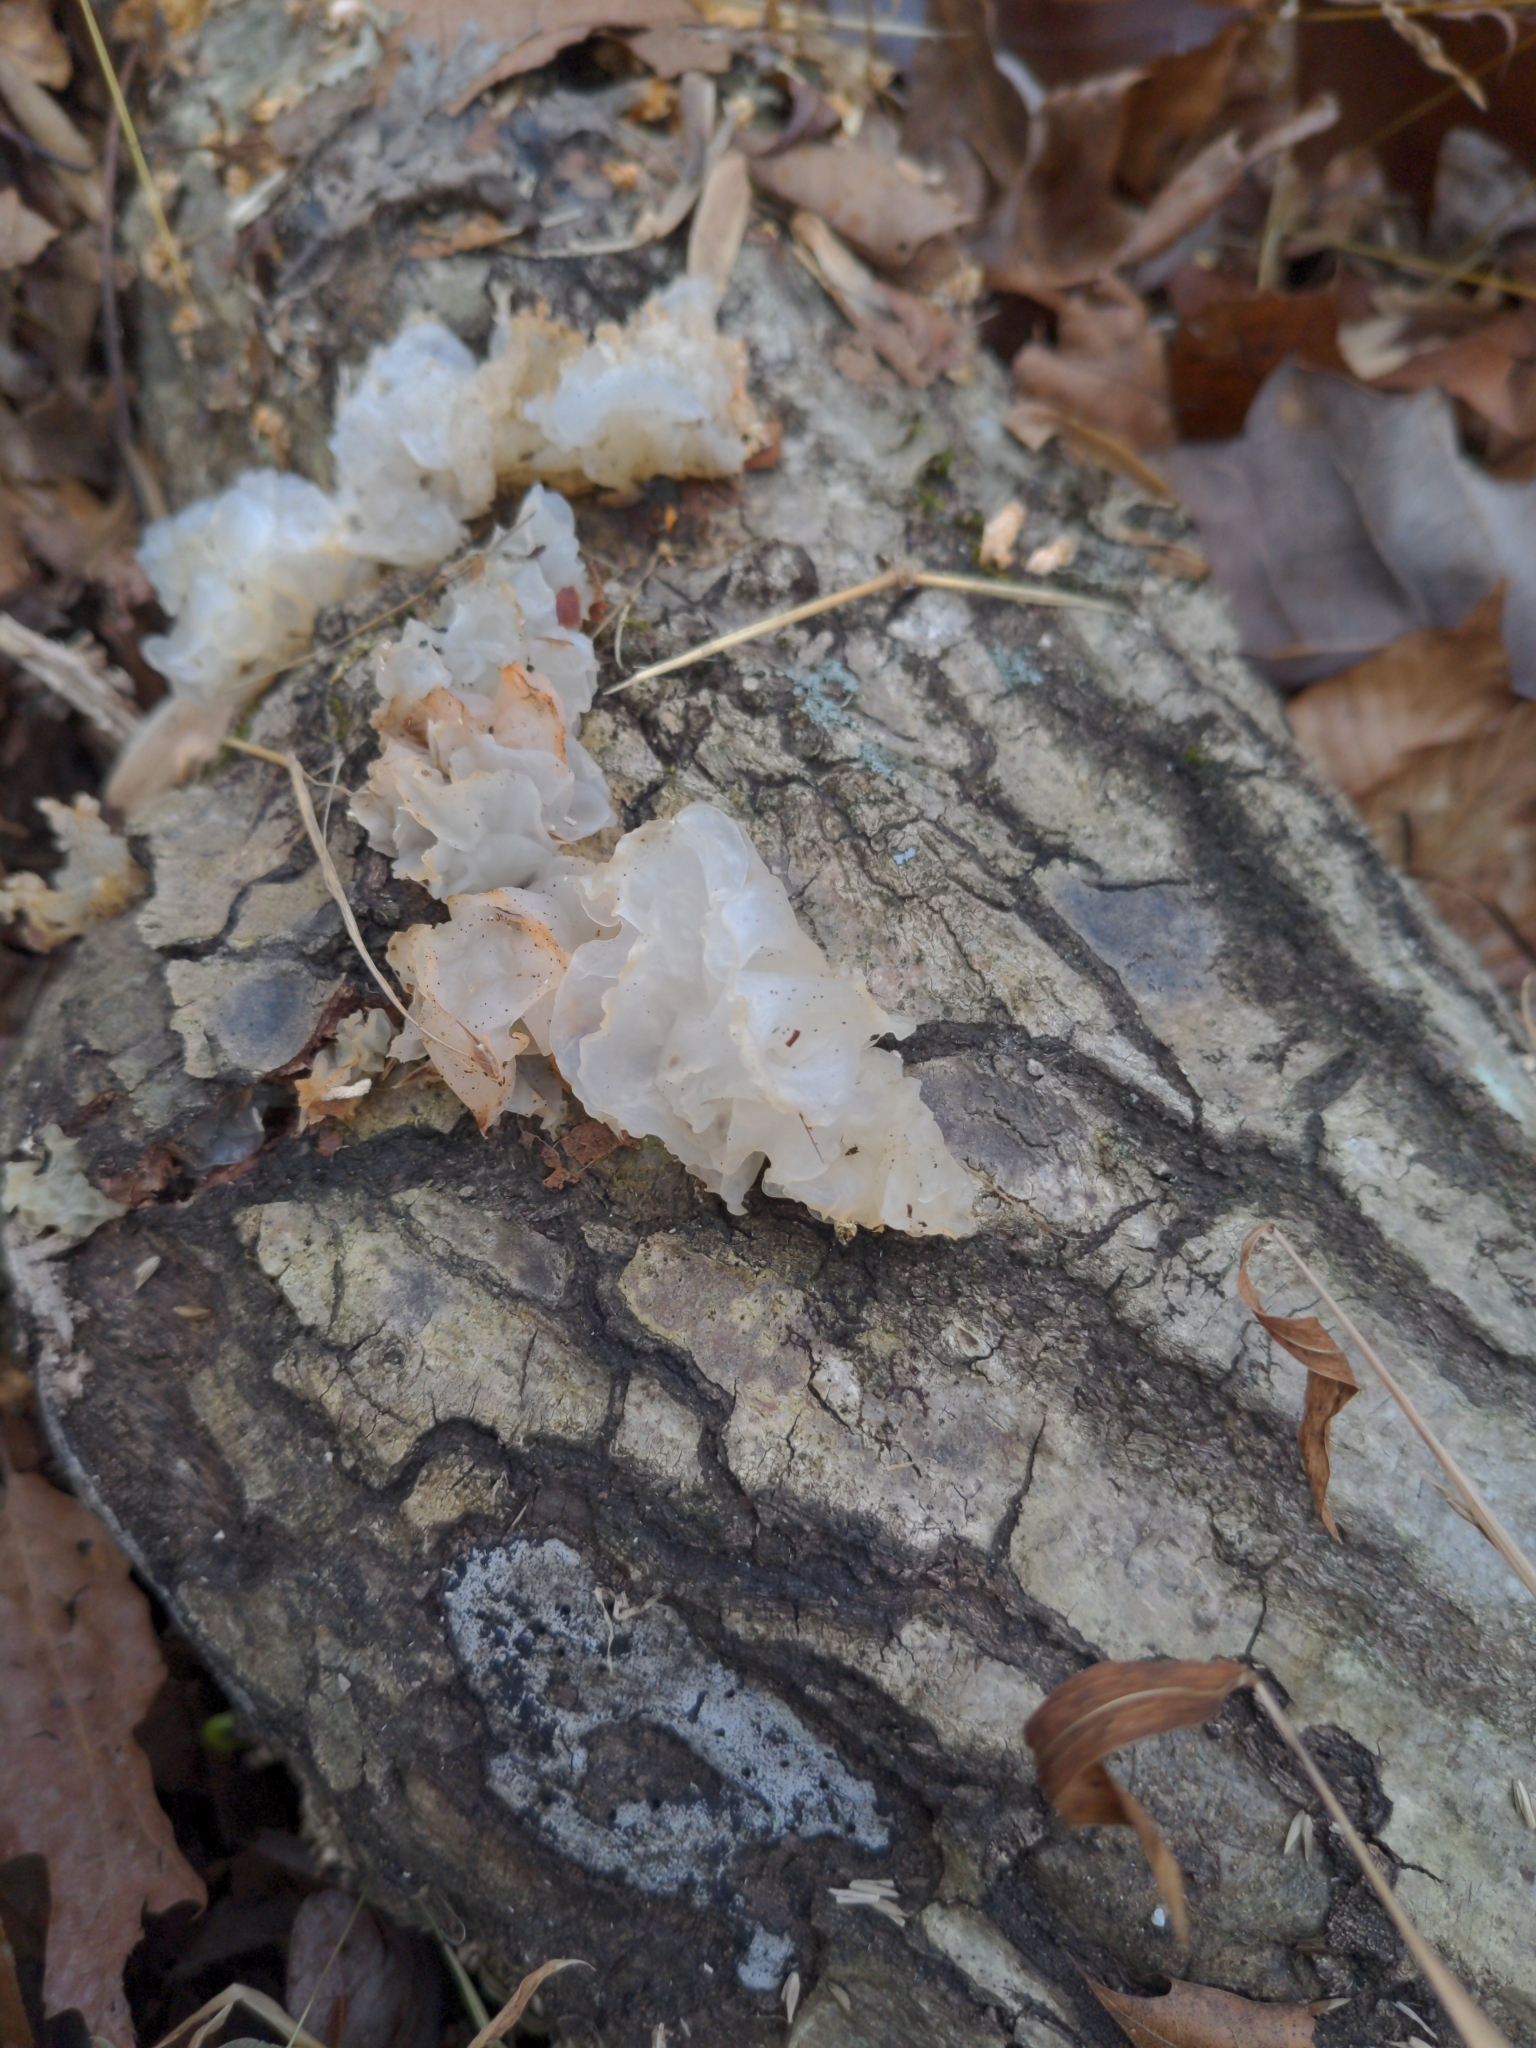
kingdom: Fungi
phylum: Basidiomycota
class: Tremellomycetes
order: Tremellales
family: Tremellaceae
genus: Tremella
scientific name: Tremella fuciformis
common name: Snow fungus
